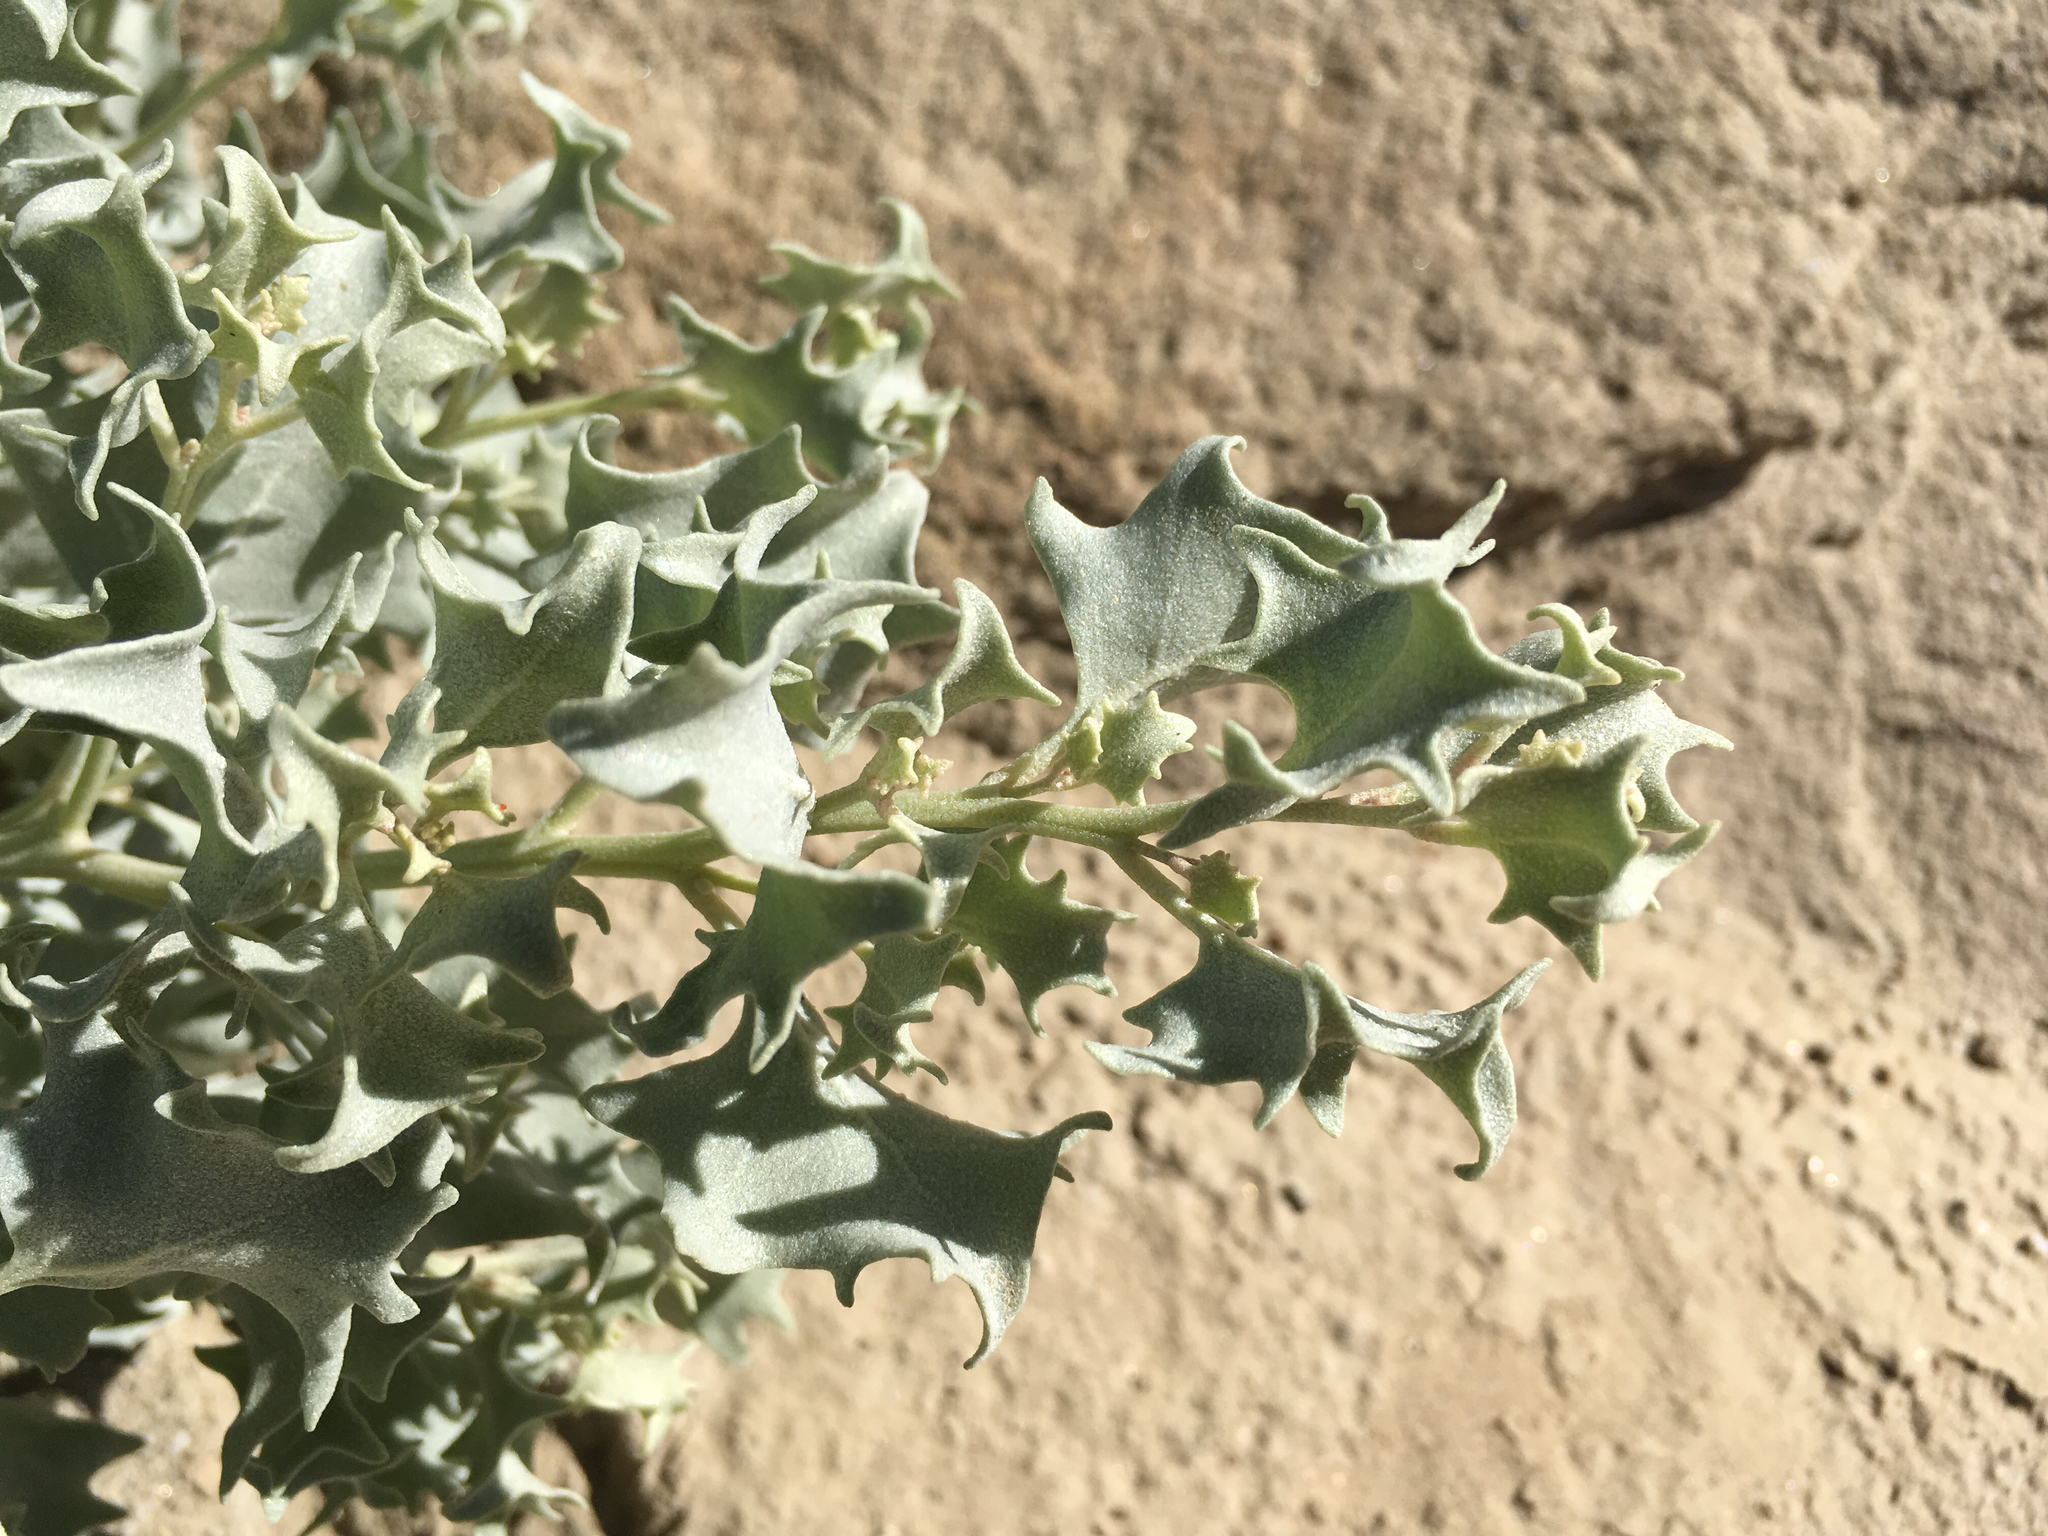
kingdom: Plantae
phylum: Tracheophyta
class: Magnoliopsida
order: Caryophyllales
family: Amaranthaceae
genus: Atriplex
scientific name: Atriplex hymenelytra
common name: Desert-holly
